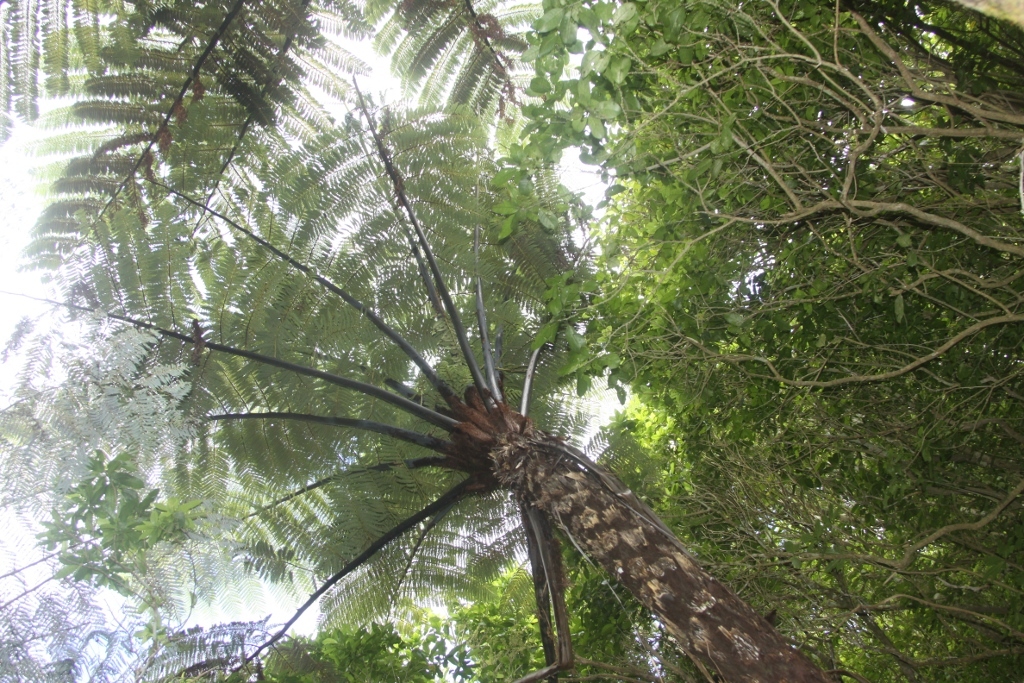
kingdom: Plantae
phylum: Tracheophyta
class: Polypodiopsida
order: Cyatheales
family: Cyatheaceae
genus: Sphaeropteris
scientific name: Sphaeropteris medullaris
